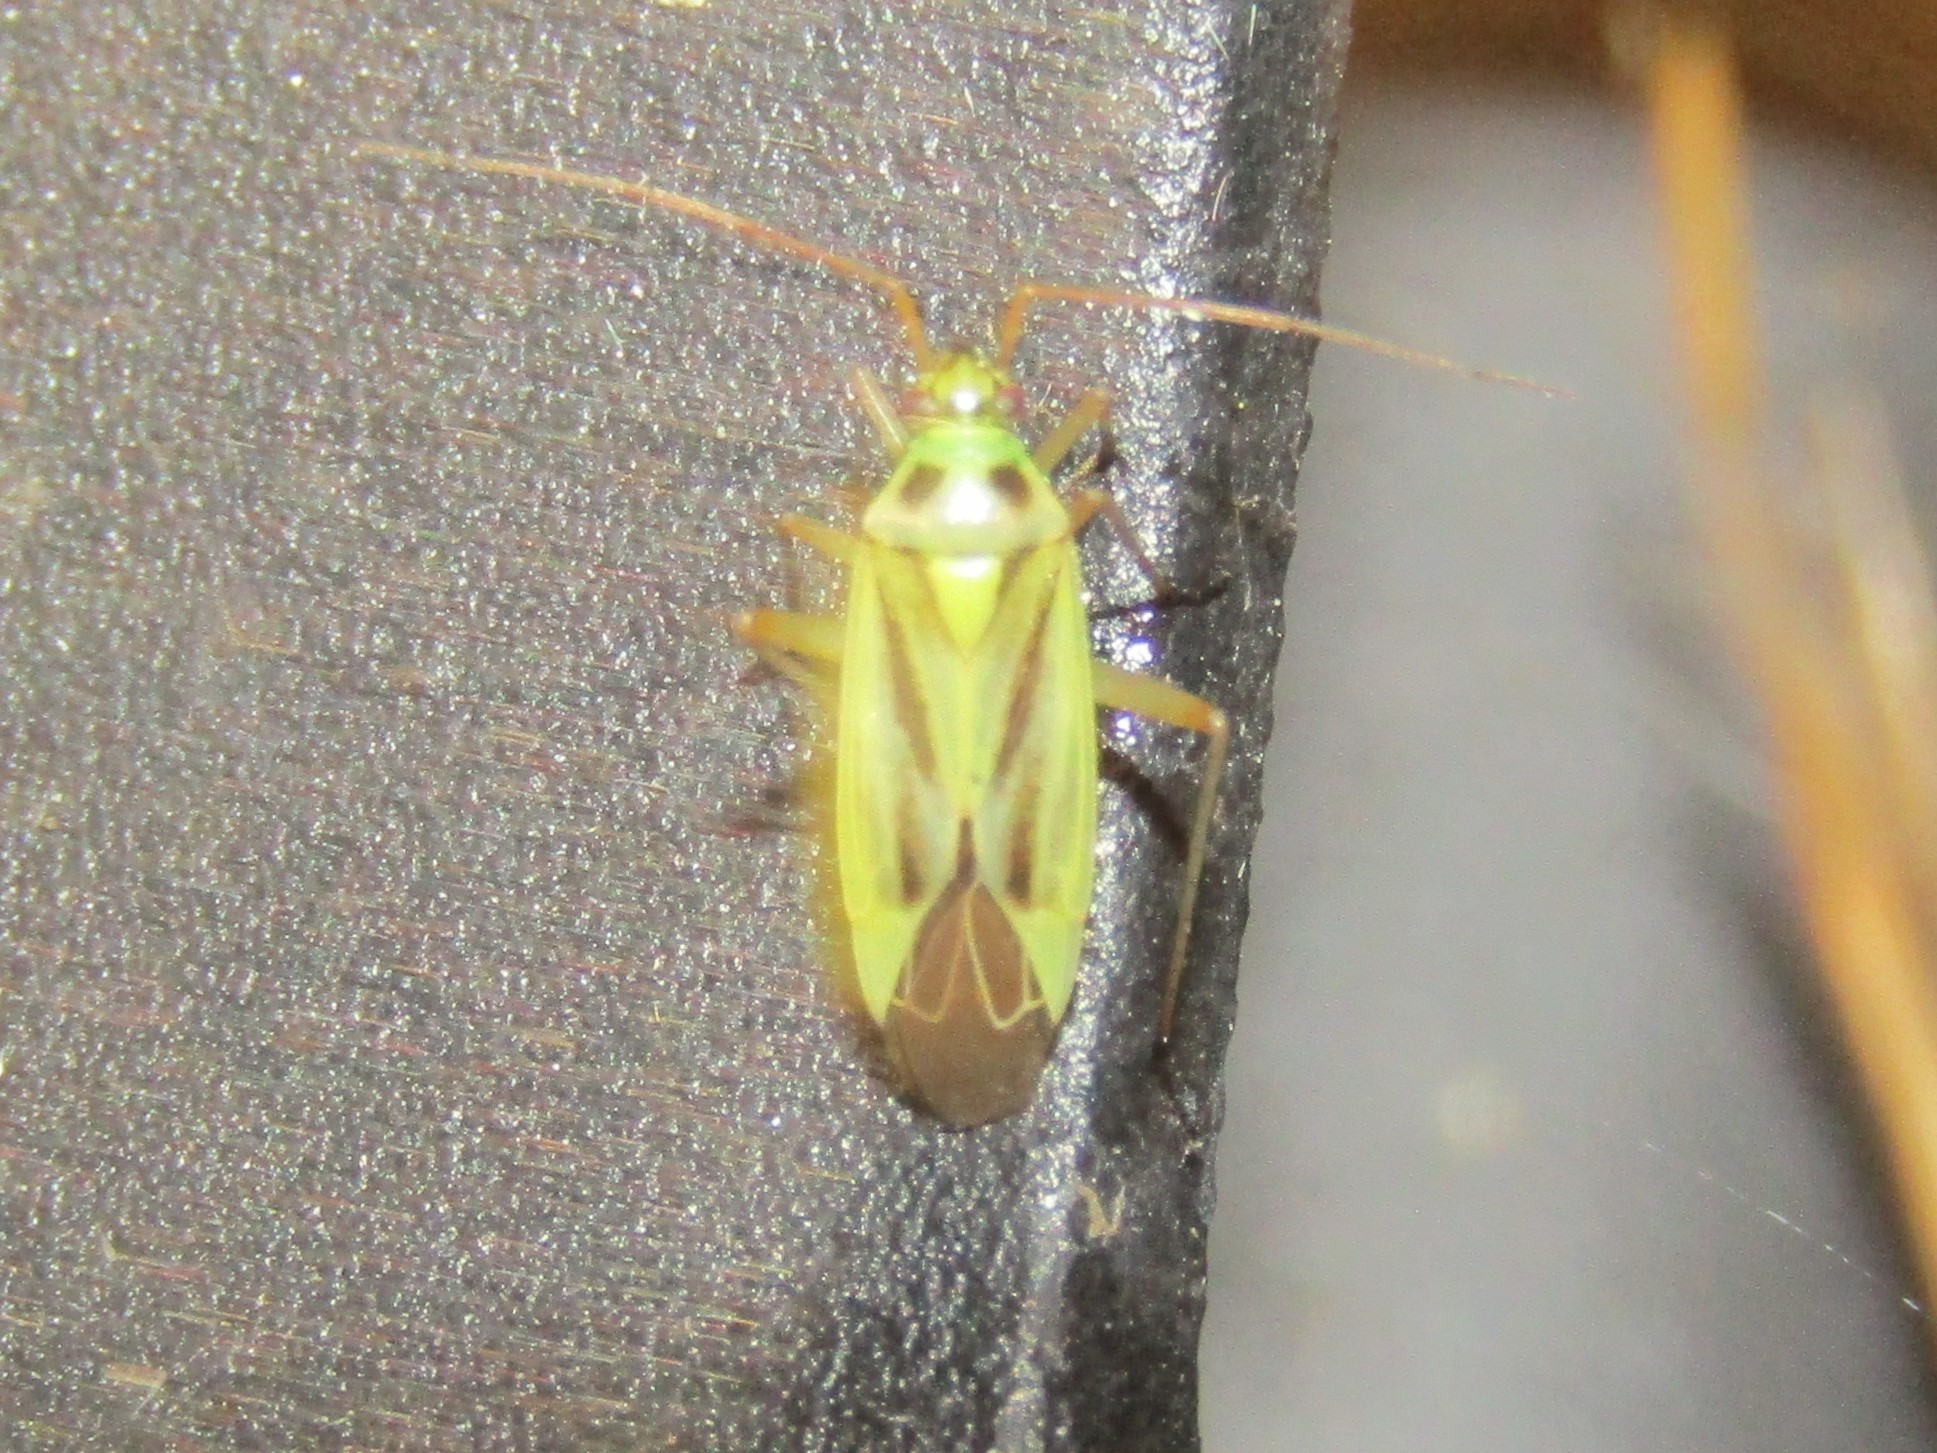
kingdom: Animalia
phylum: Arthropoda
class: Insecta
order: Hemiptera
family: Miridae
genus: Stenotus
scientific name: Stenotus binotatus
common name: Plant bug
